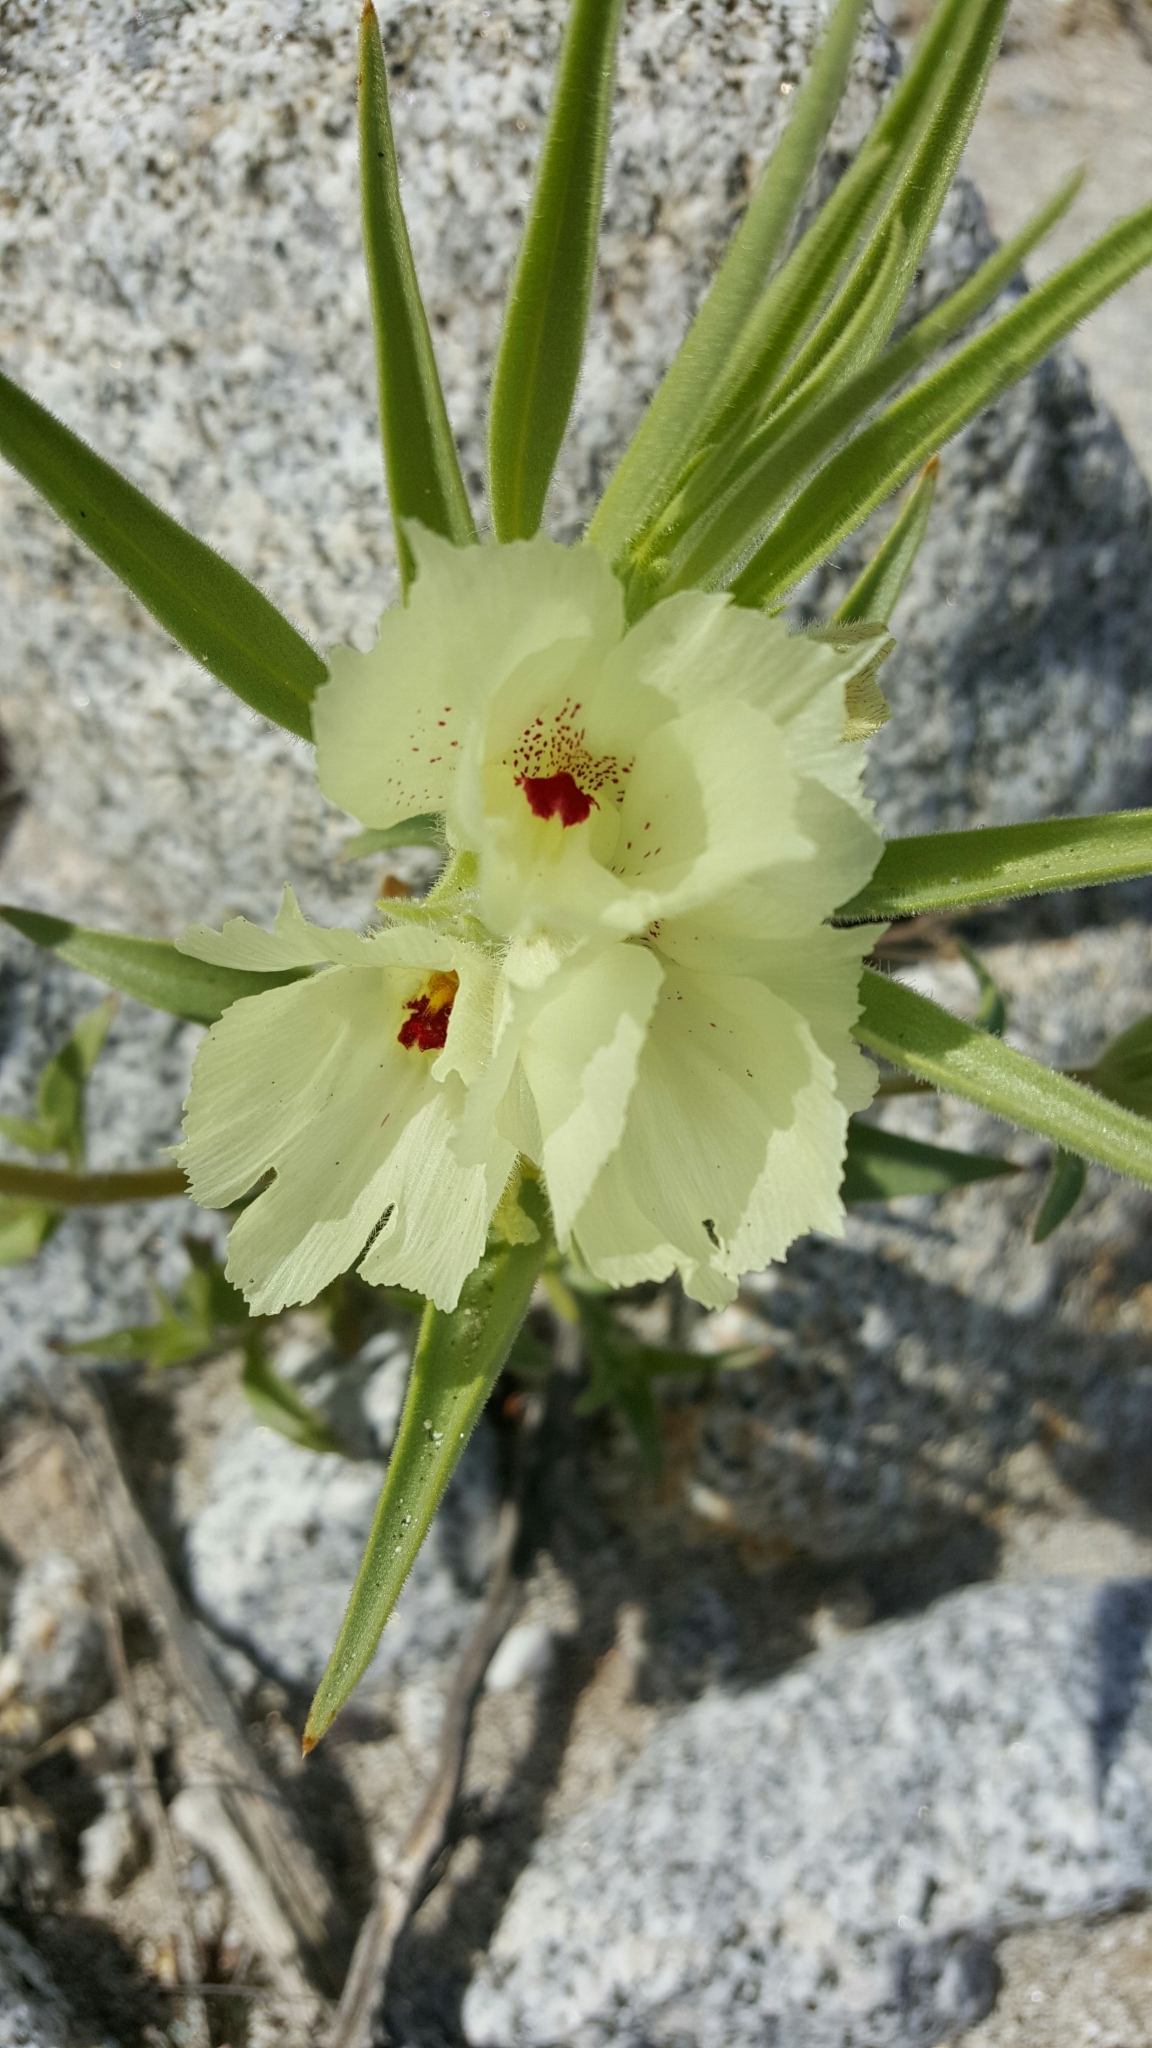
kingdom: Plantae
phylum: Tracheophyta
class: Magnoliopsida
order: Lamiales
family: Plantaginaceae
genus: Mohavea
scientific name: Mohavea confertiflora
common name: Ghost flower
